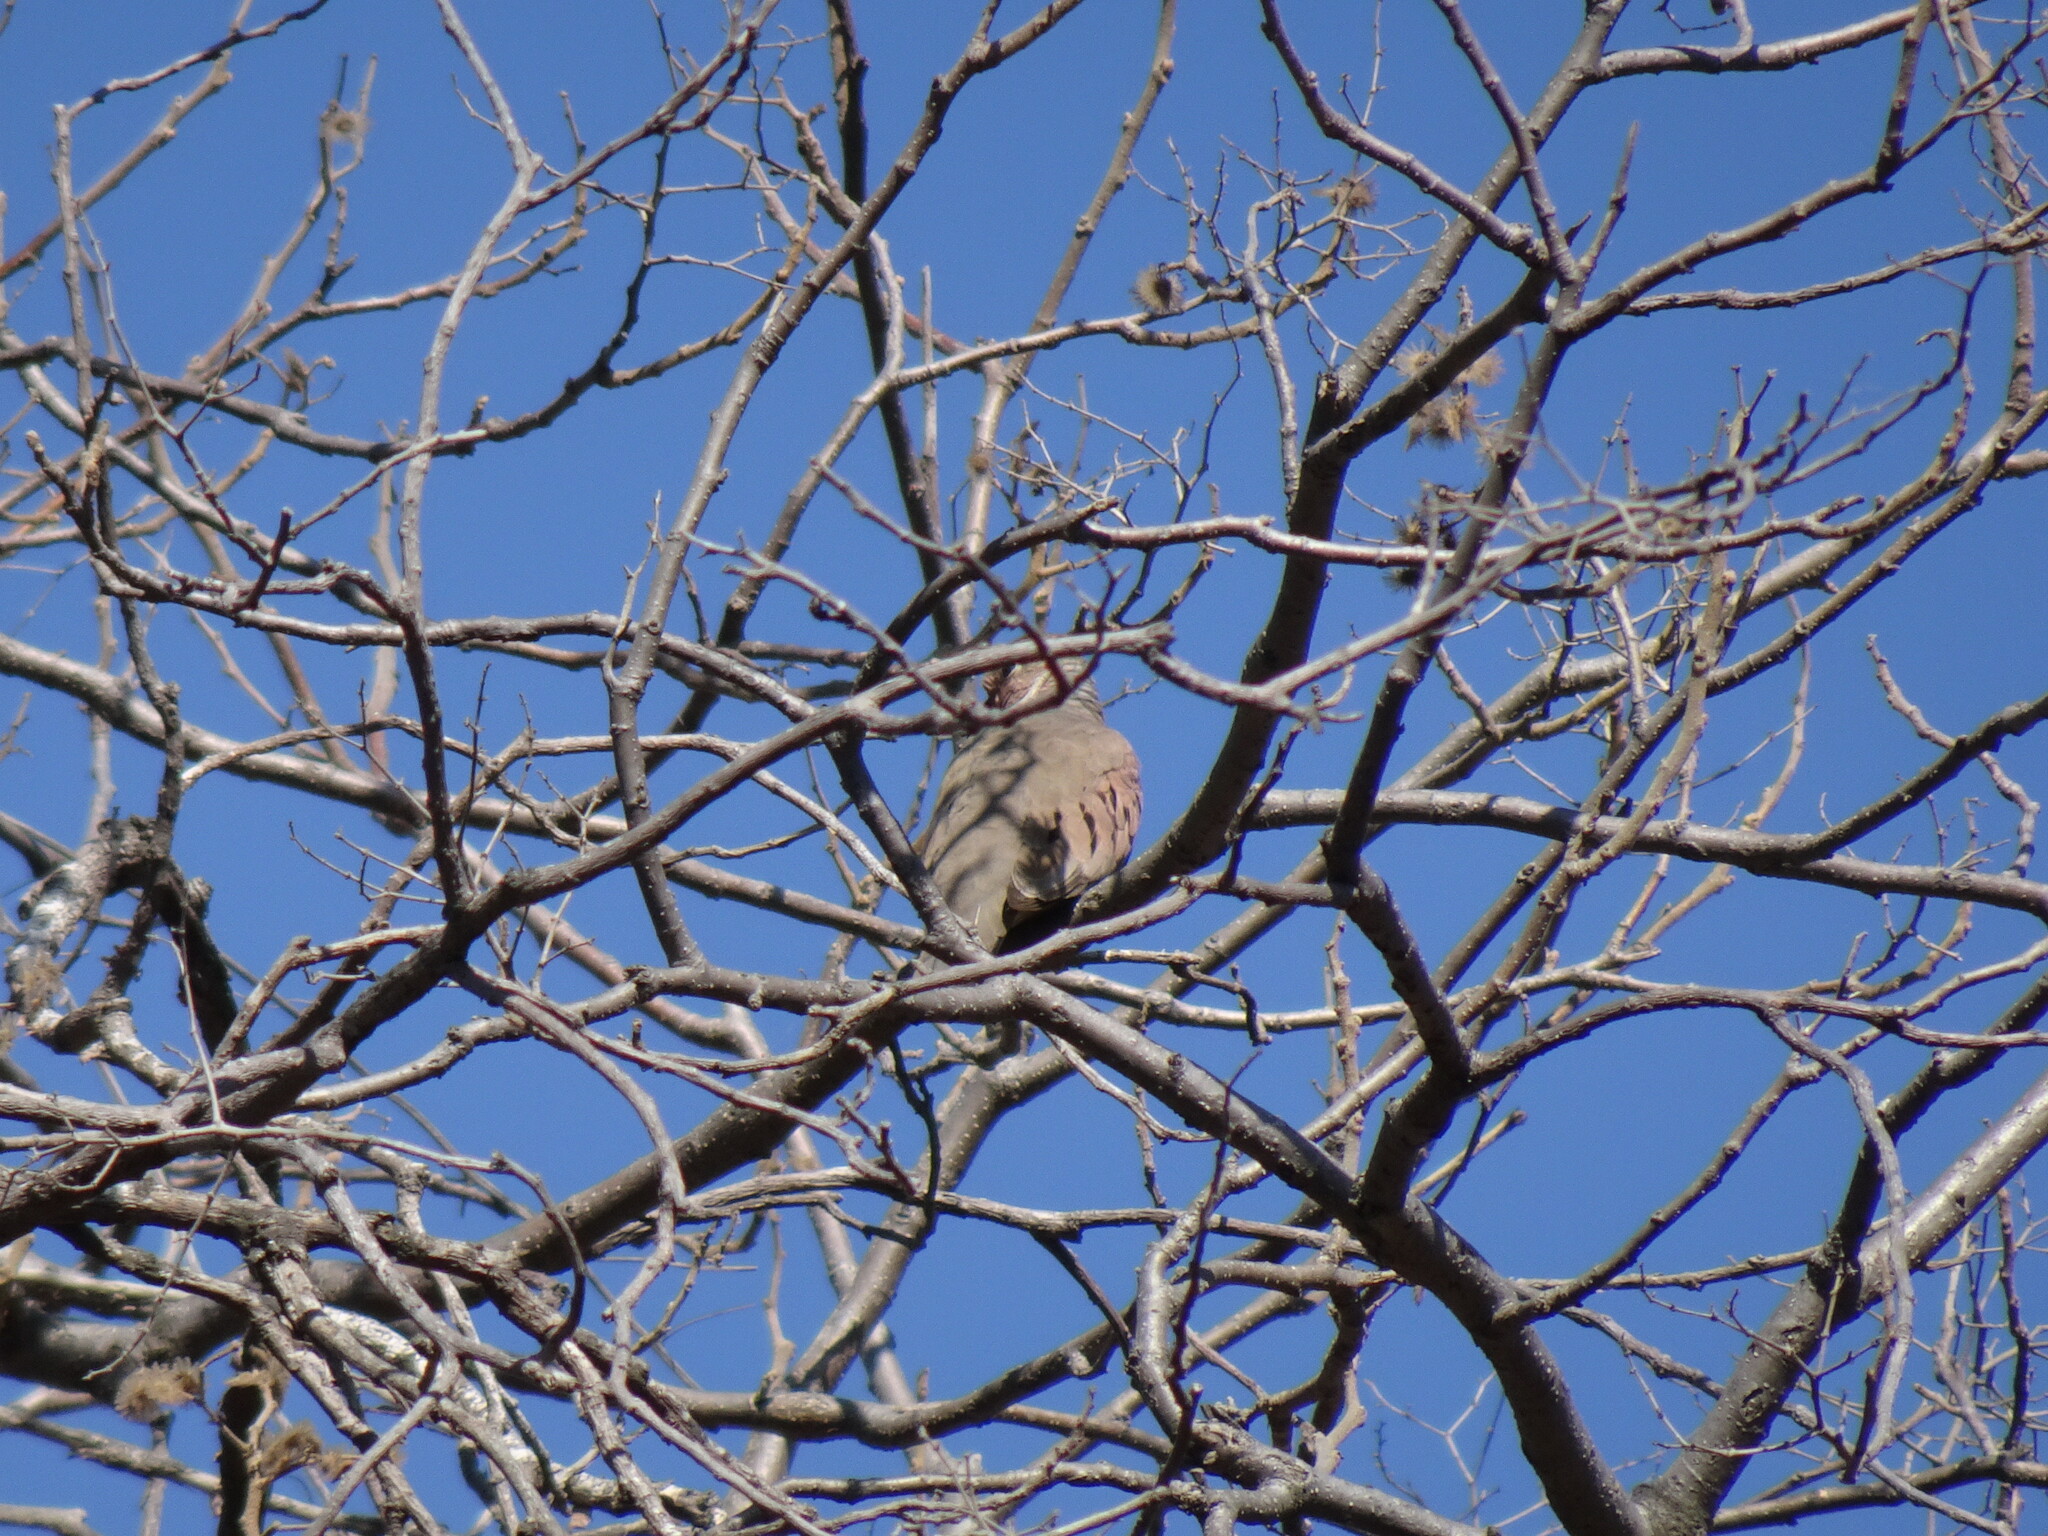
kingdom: Animalia
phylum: Chordata
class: Aves
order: Columbiformes
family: Columbidae
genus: Columbina
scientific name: Columbina passerina
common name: Common ground-dove
